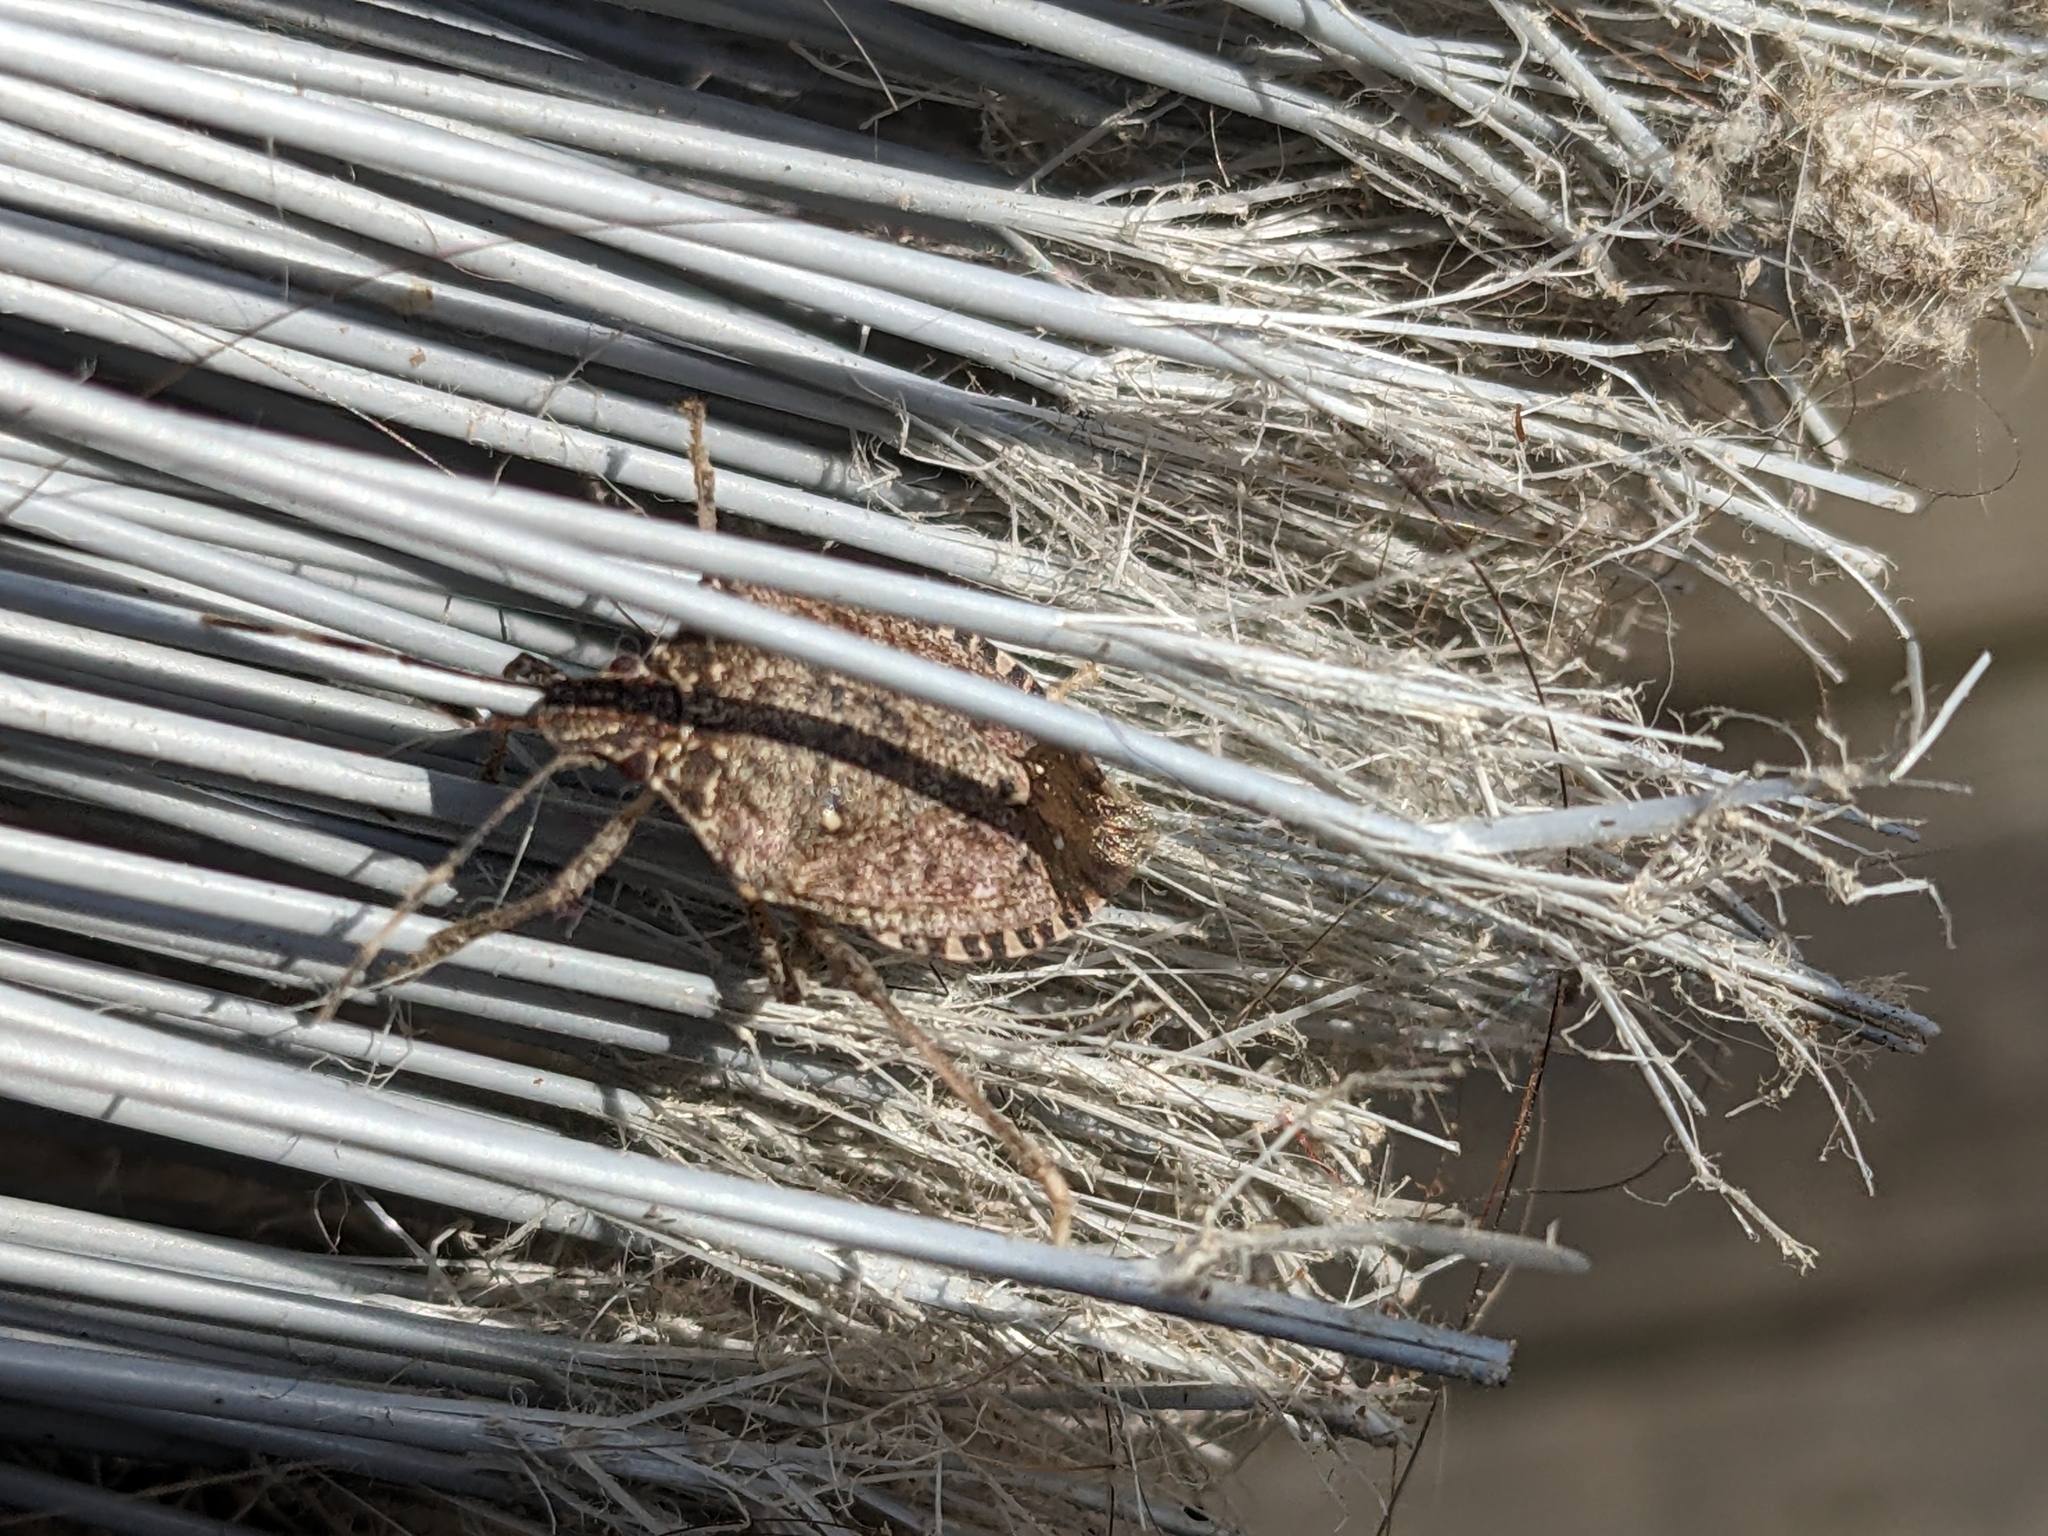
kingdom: Animalia
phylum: Arthropoda
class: Insecta
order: Hemiptera
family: Pentatomidae
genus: Halyomorpha
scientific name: Halyomorpha halys
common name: Brown marmorated stink bug
